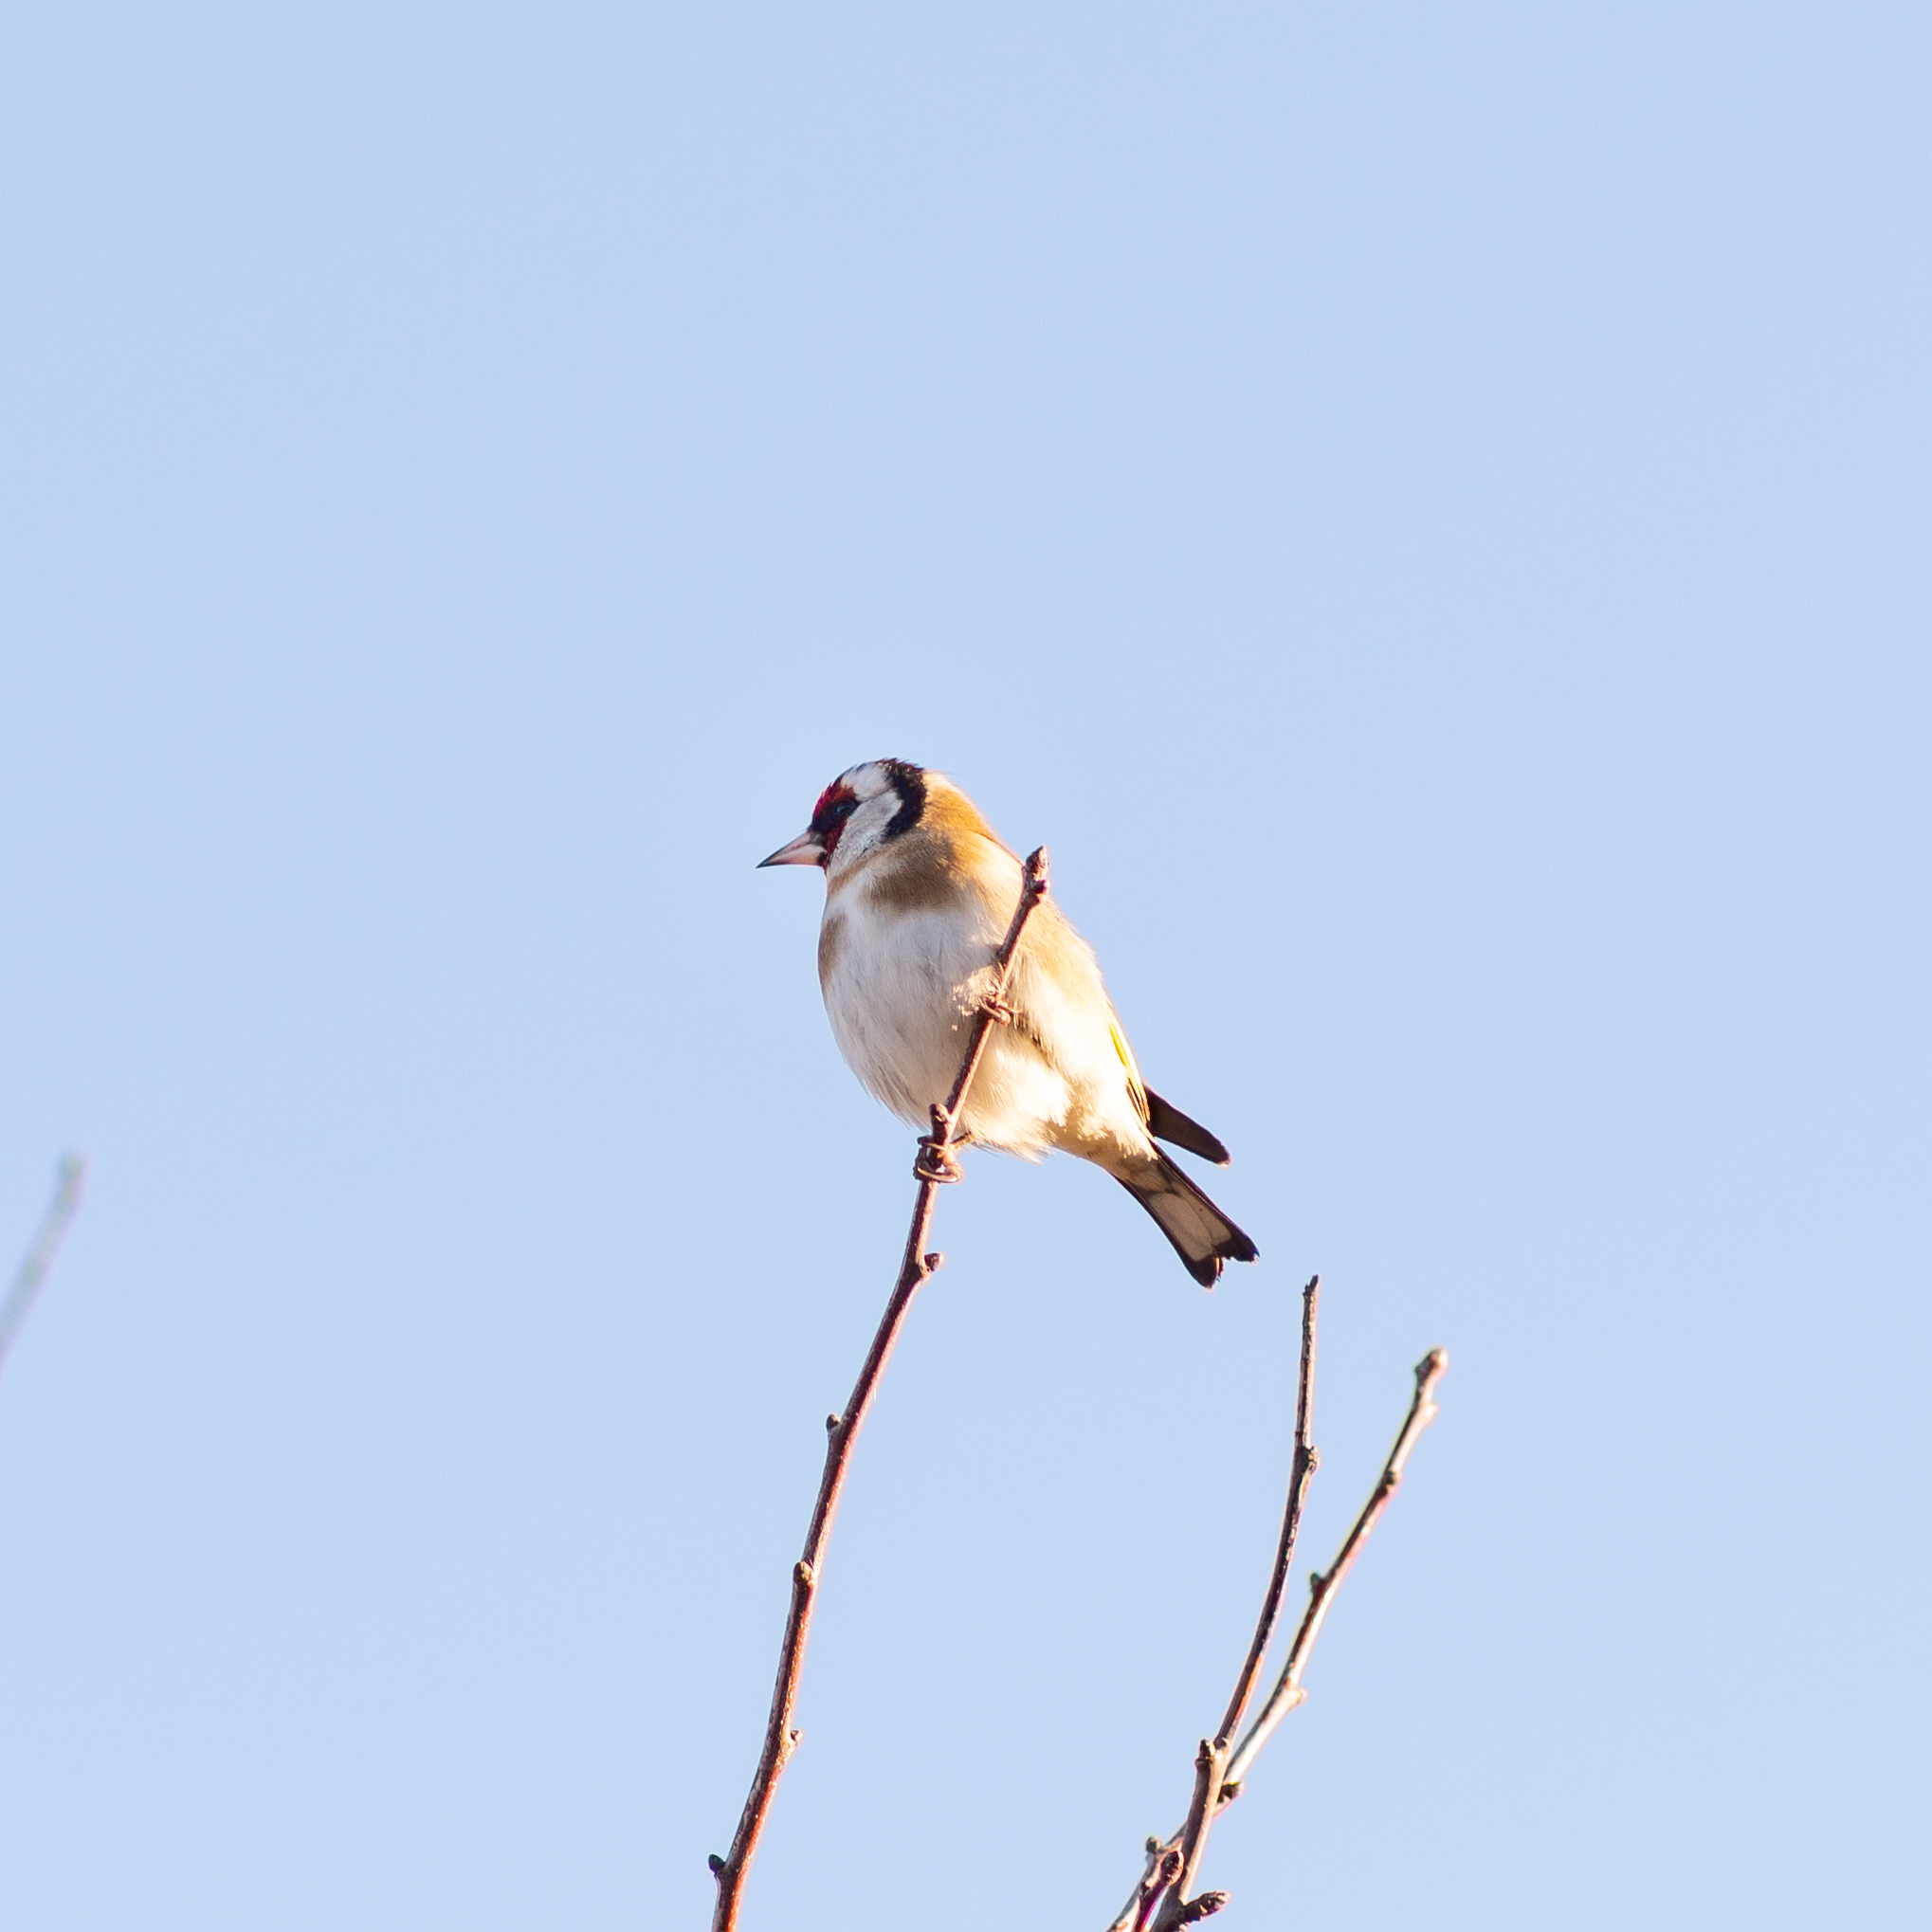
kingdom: Animalia
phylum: Chordata
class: Aves
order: Passeriformes
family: Fringillidae
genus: Carduelis
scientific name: Carduelis carduelis
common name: European goldfinch
